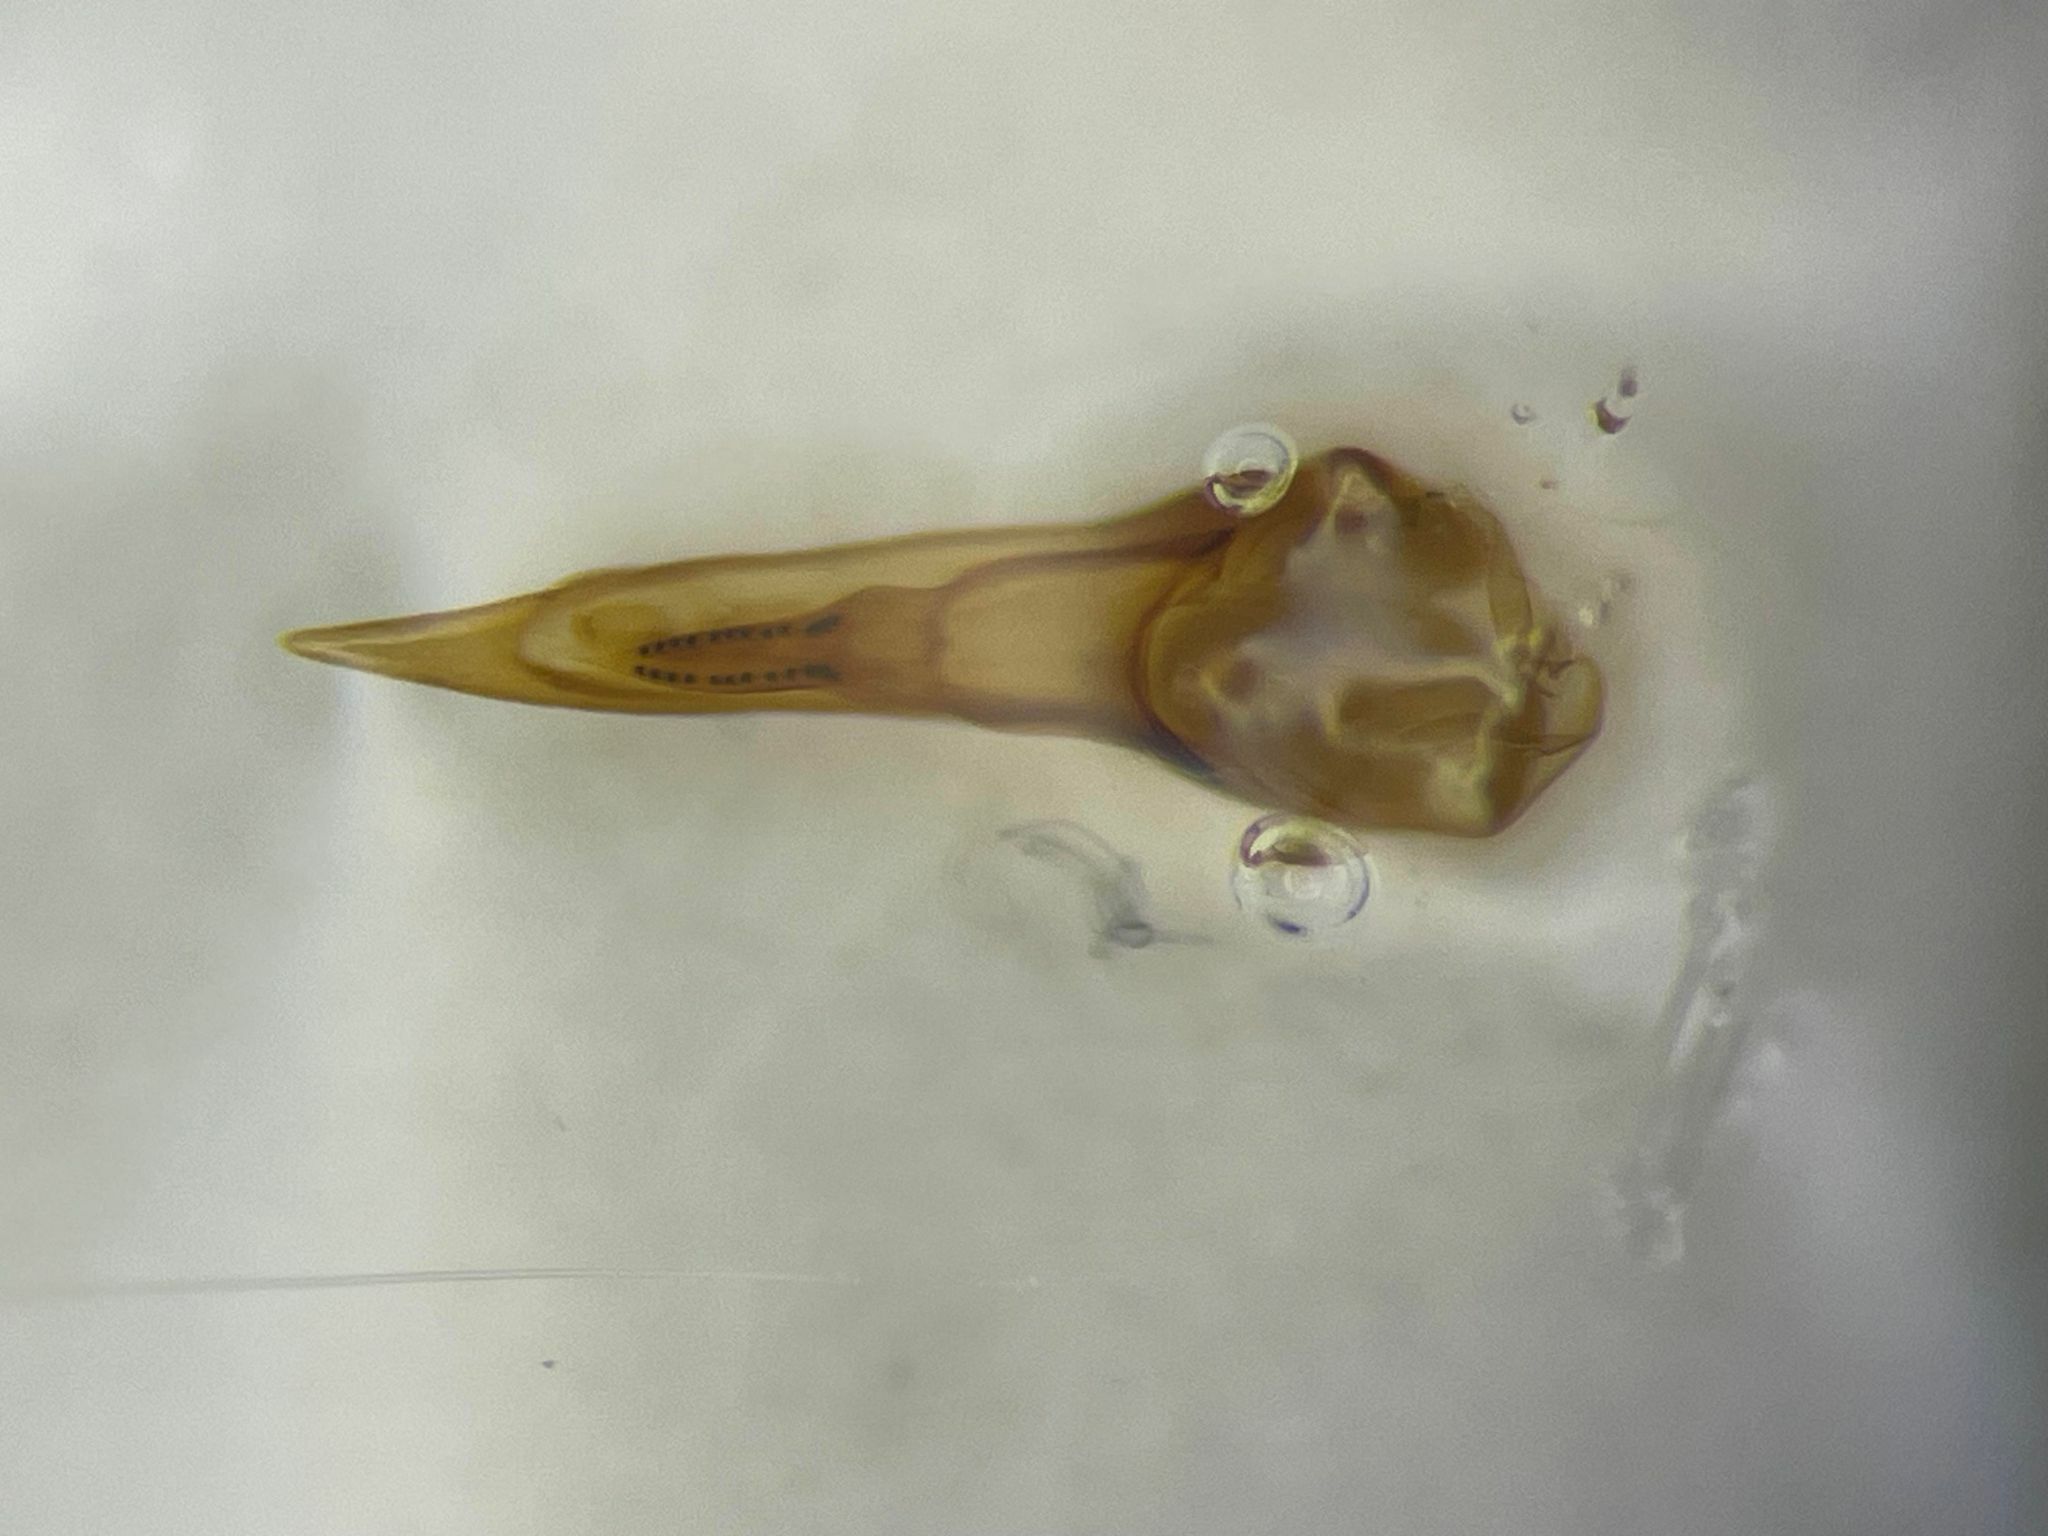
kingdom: Animalia
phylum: Arthropoda
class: Insecta
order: Coleoptera
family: Staphylinidae
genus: Philonthus
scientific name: Philonthus concinnus
